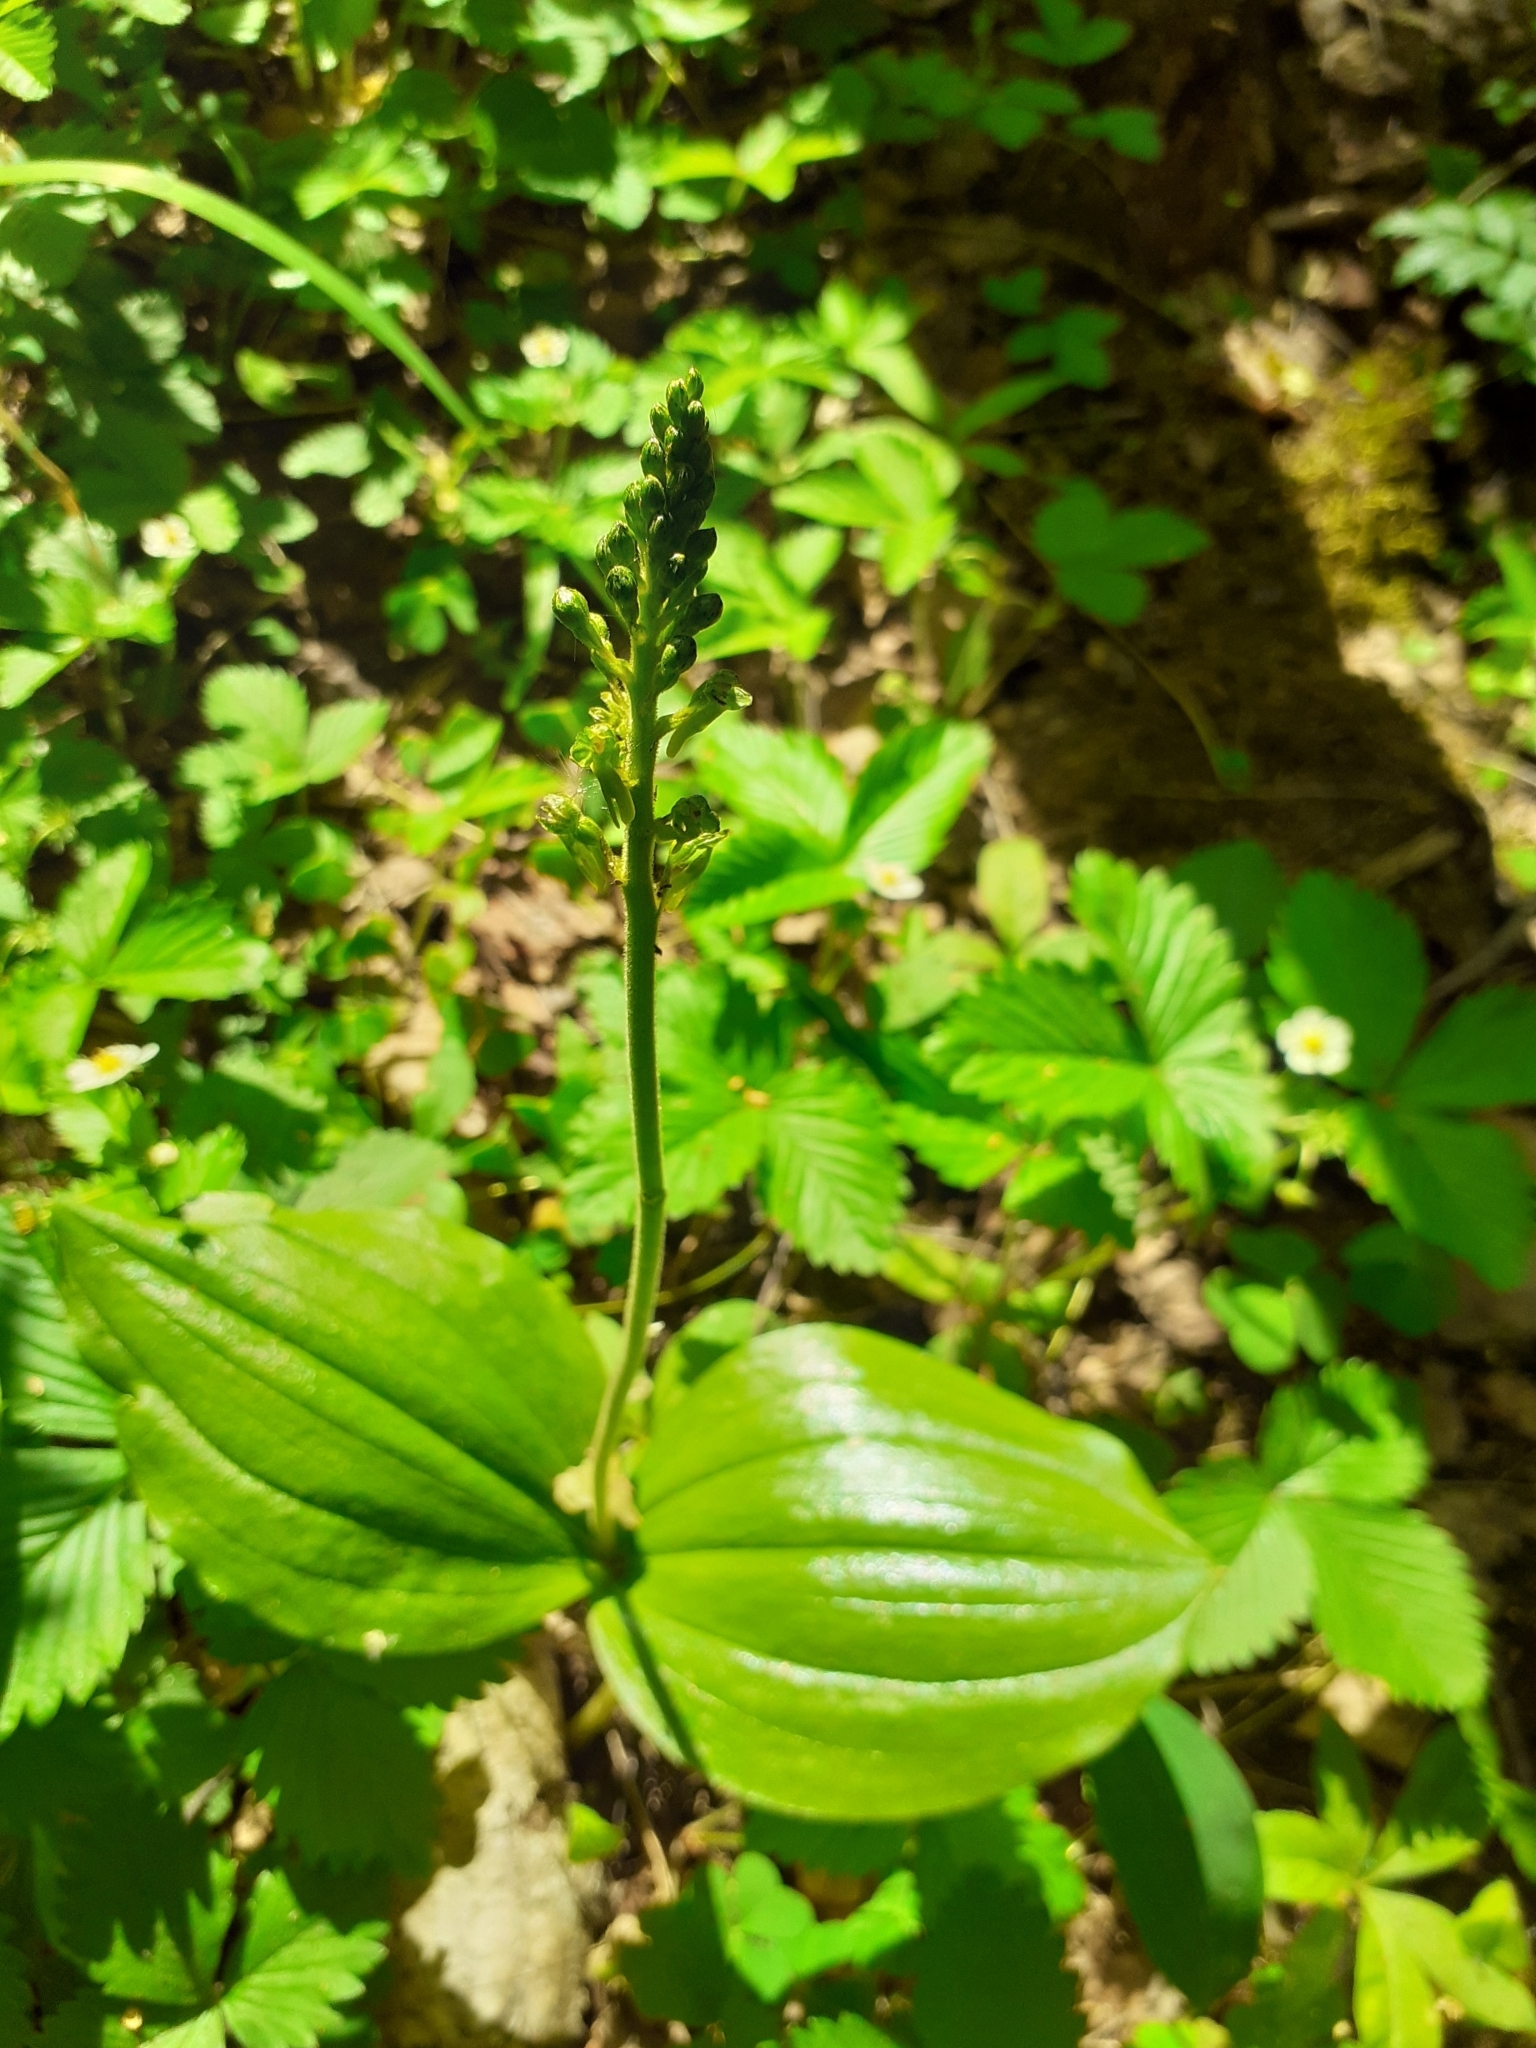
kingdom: Plantae
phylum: Tracheophyta
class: Liliopsida
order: Asparagales
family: Orchidaceae
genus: Neottia
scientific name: Neottia ovata
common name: Common twayblade
